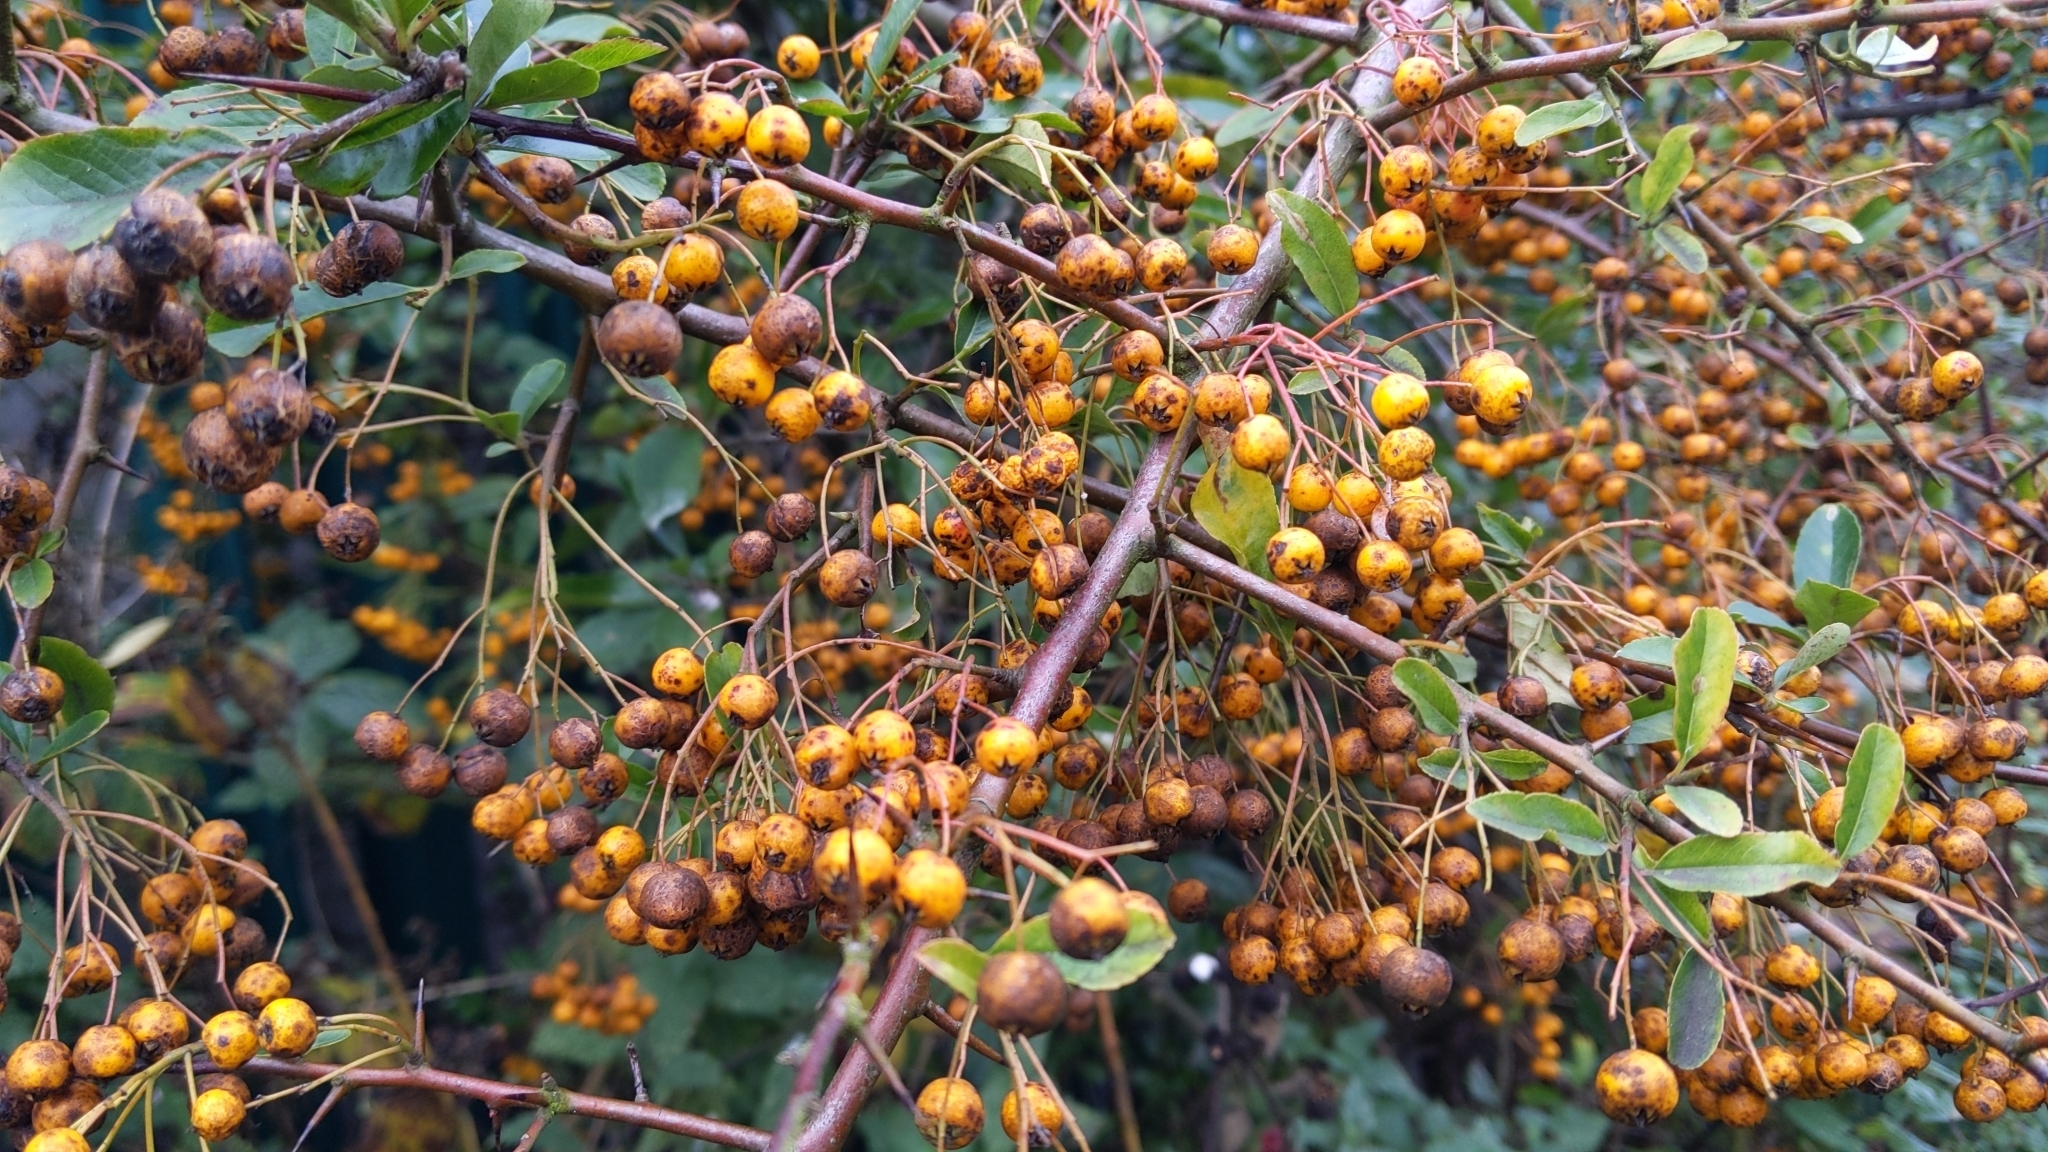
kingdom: Plantae
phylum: Tracheophyta
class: Magnoliopsida
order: Rosales
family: Rosaceae
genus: Pyracantha
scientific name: Pyracantha coccinea
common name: Firethorn
